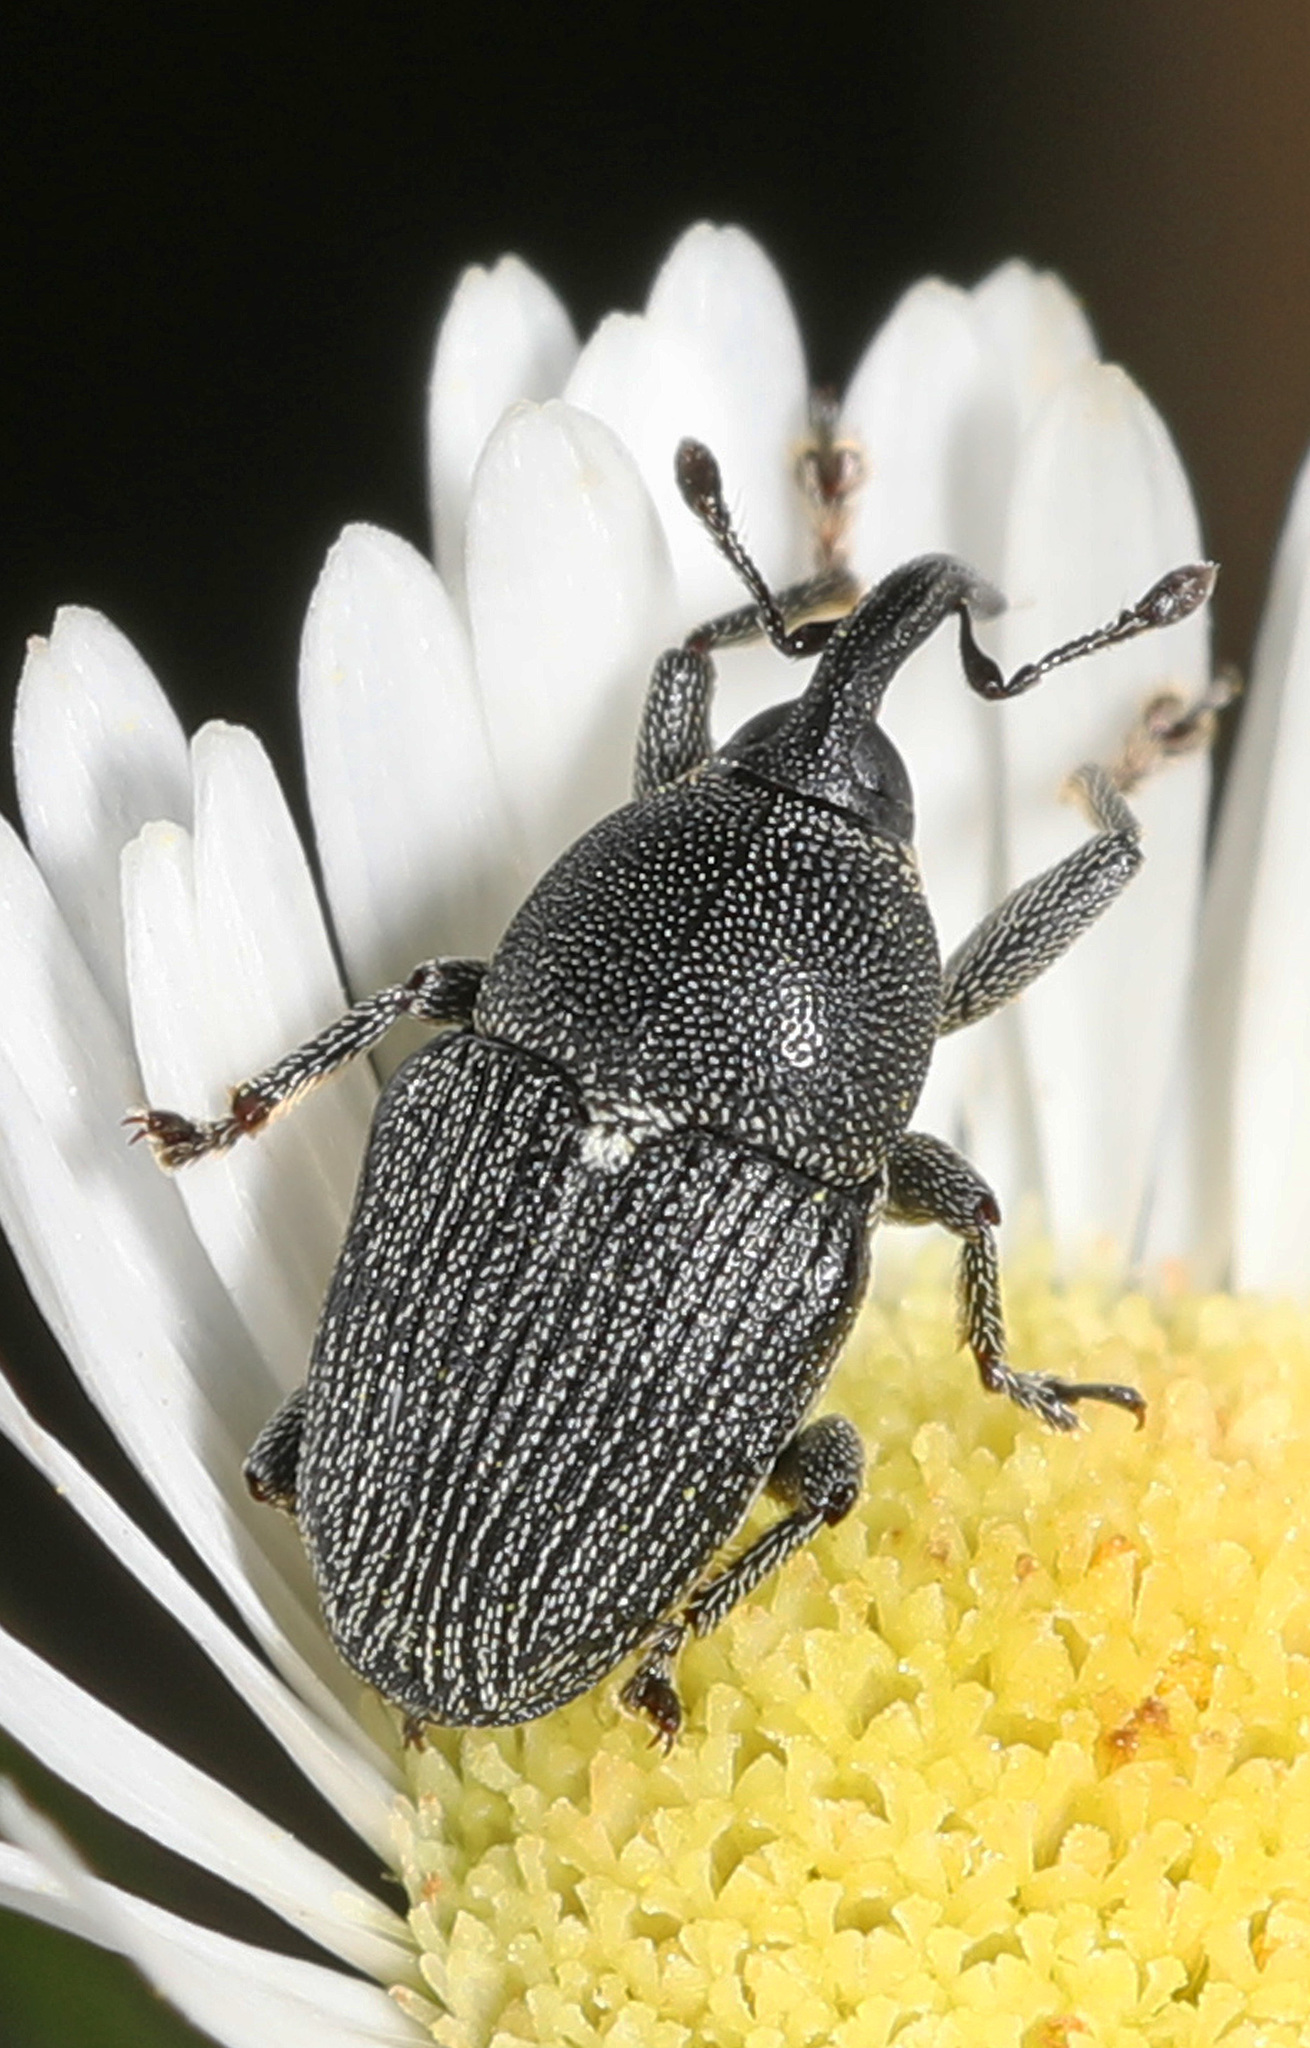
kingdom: Animalia
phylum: Arthropoda
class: Insecta
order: Coleoptera
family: Curculionidae
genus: Odontocorynus
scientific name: Odontocorynus salebrosus
